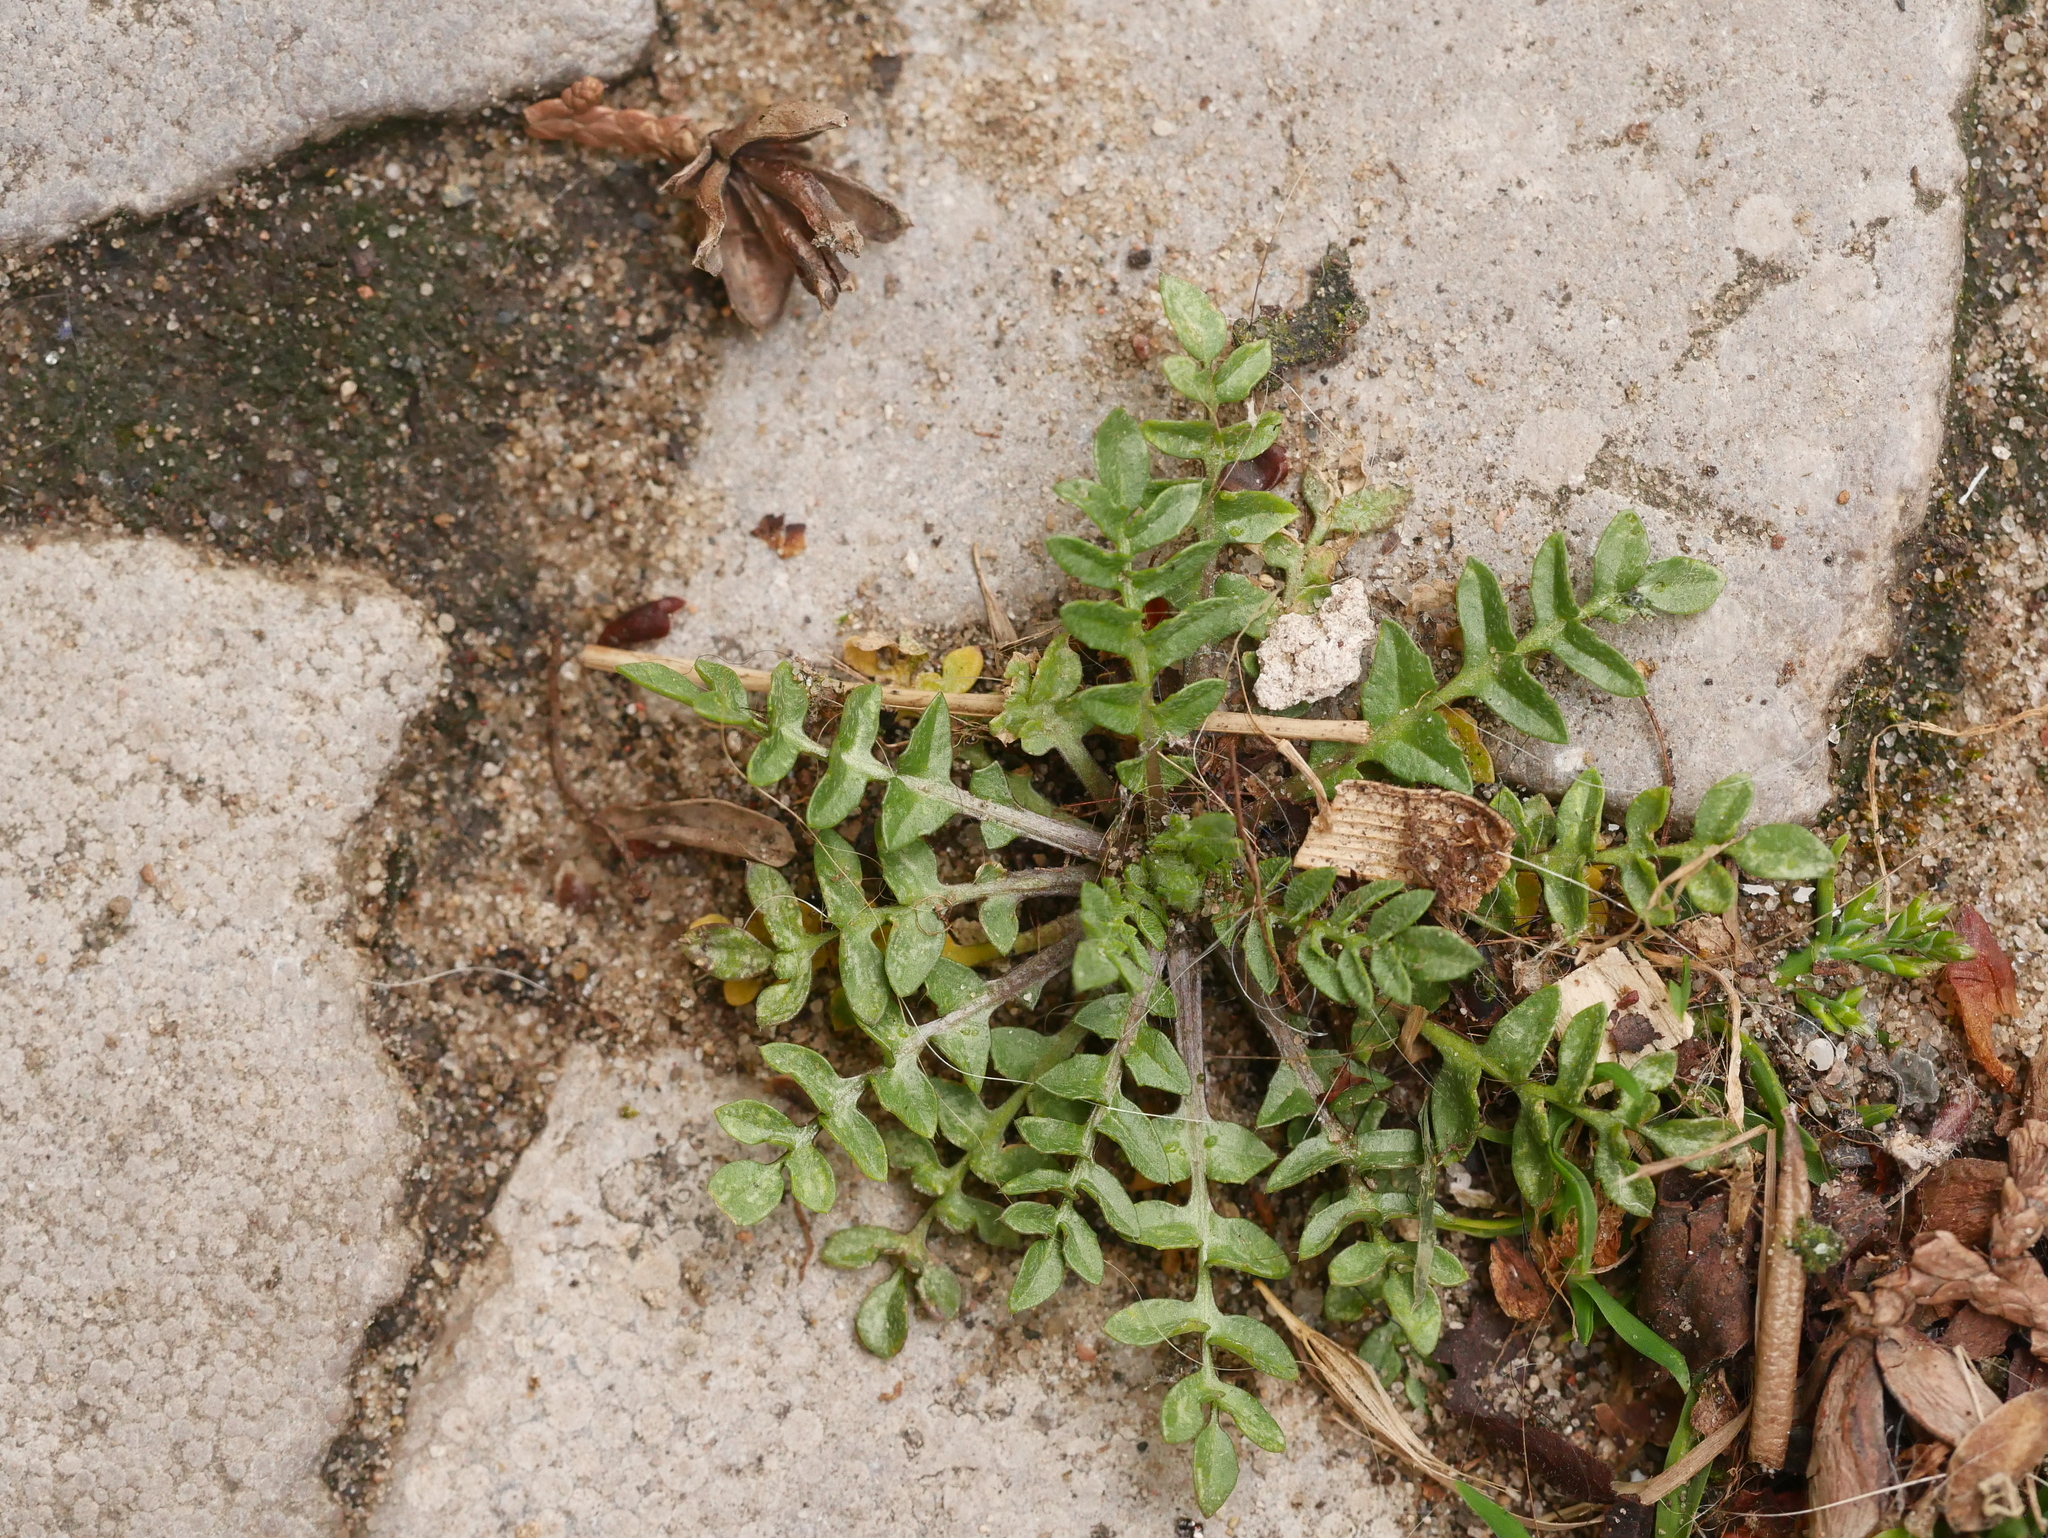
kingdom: Plantae
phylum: Tracheophyta
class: Magnoliopsida
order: Brassicales
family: Brassicaceae
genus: Capsella
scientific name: Capsella bursa-pastoris
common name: Shepherd's purse
